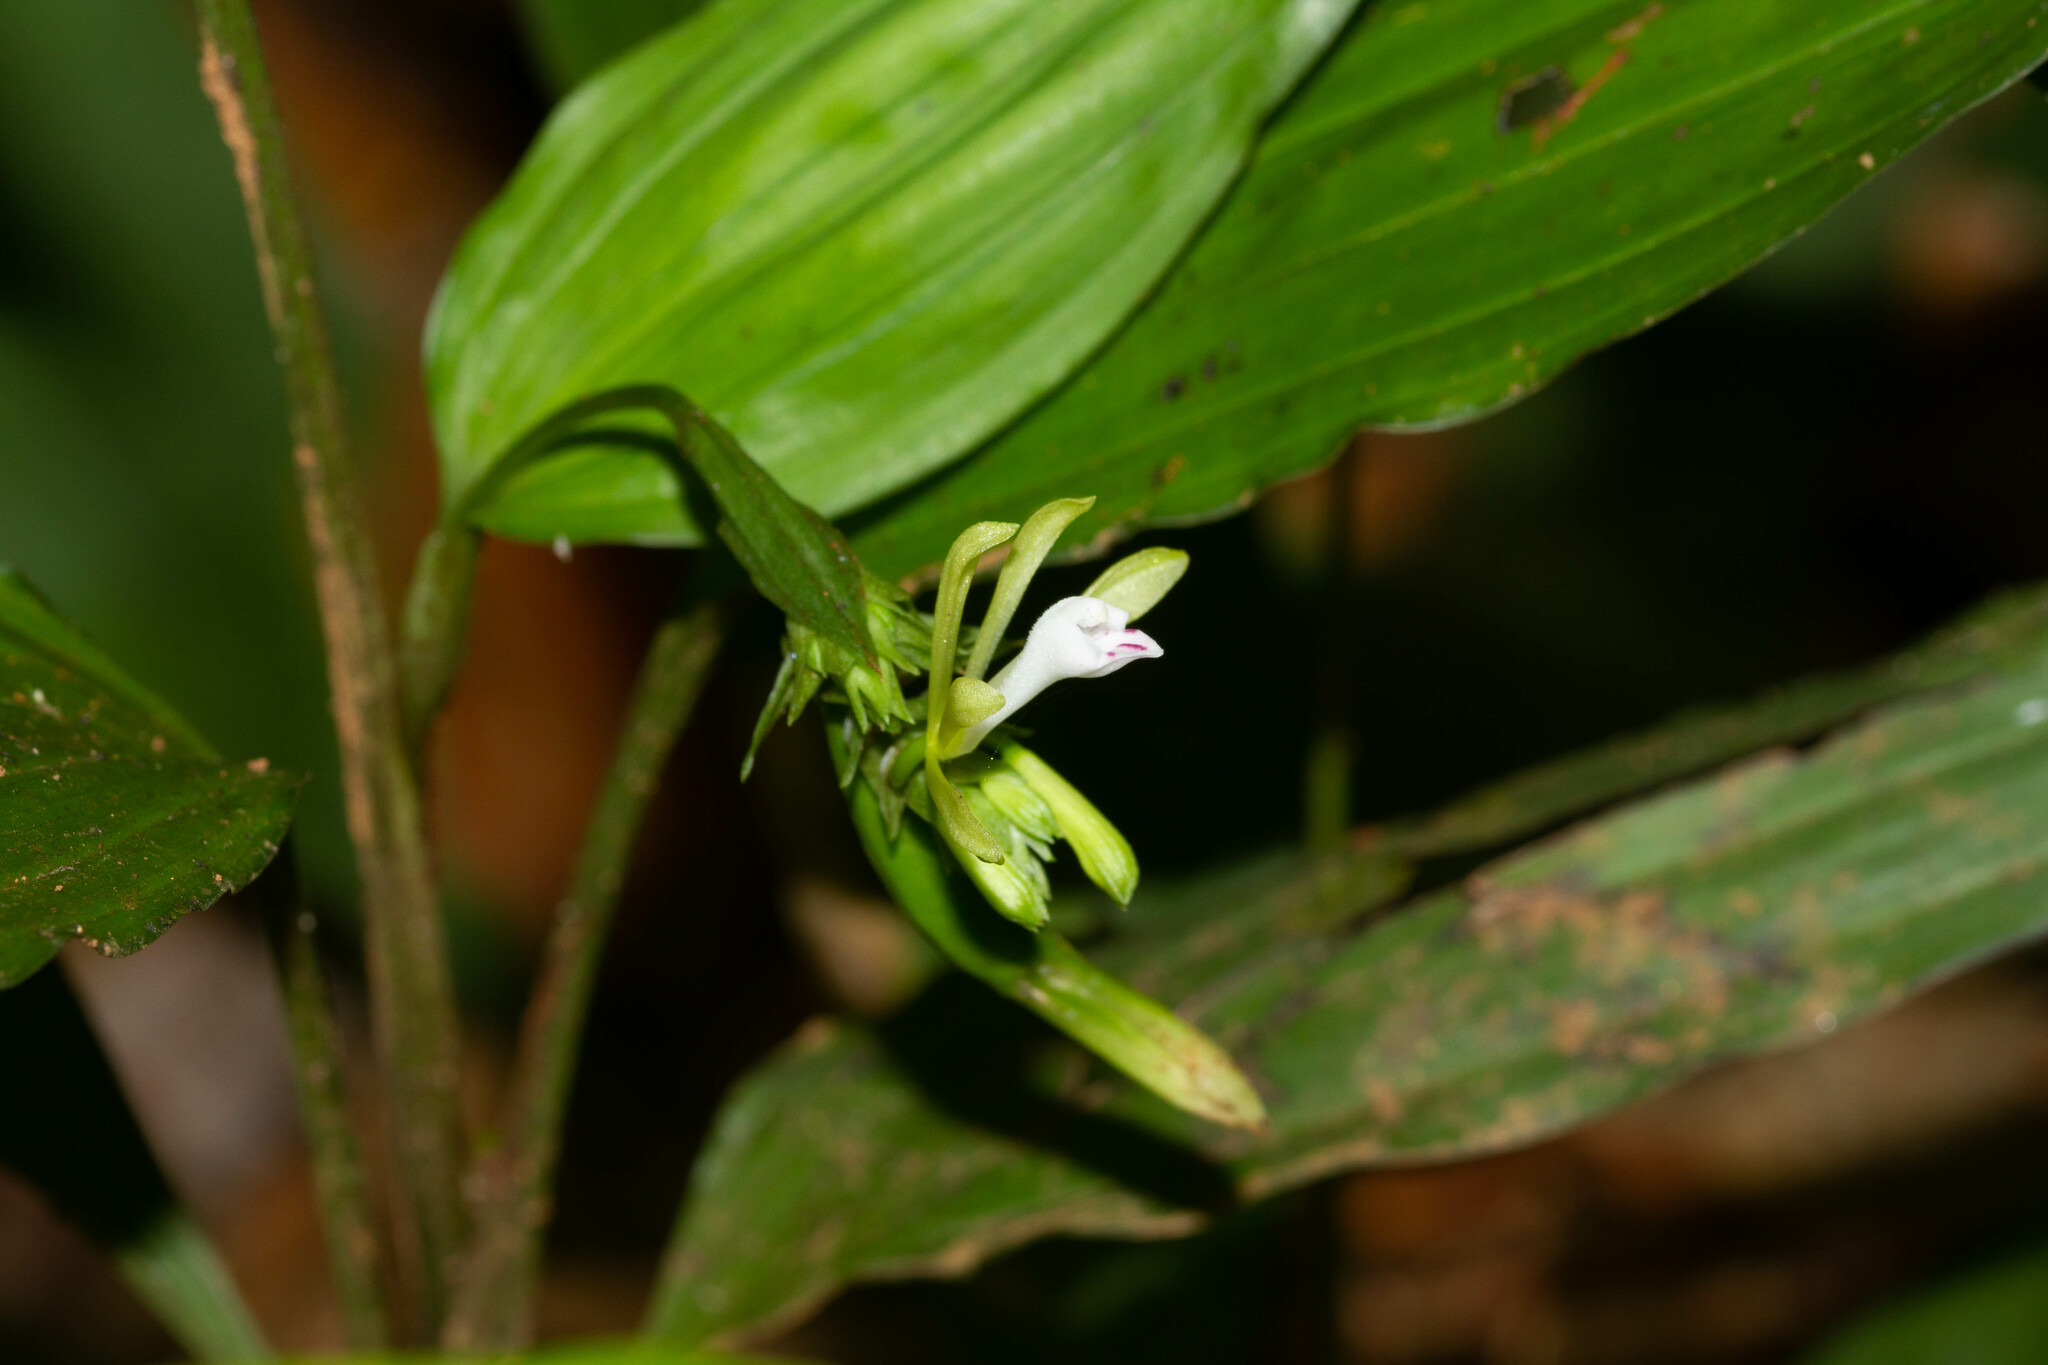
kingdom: Plantae
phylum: Tracheophyta
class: Liliopsida
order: Asparagales
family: Orchidaceae
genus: Palmorchis
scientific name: Palmorchis pabstii
